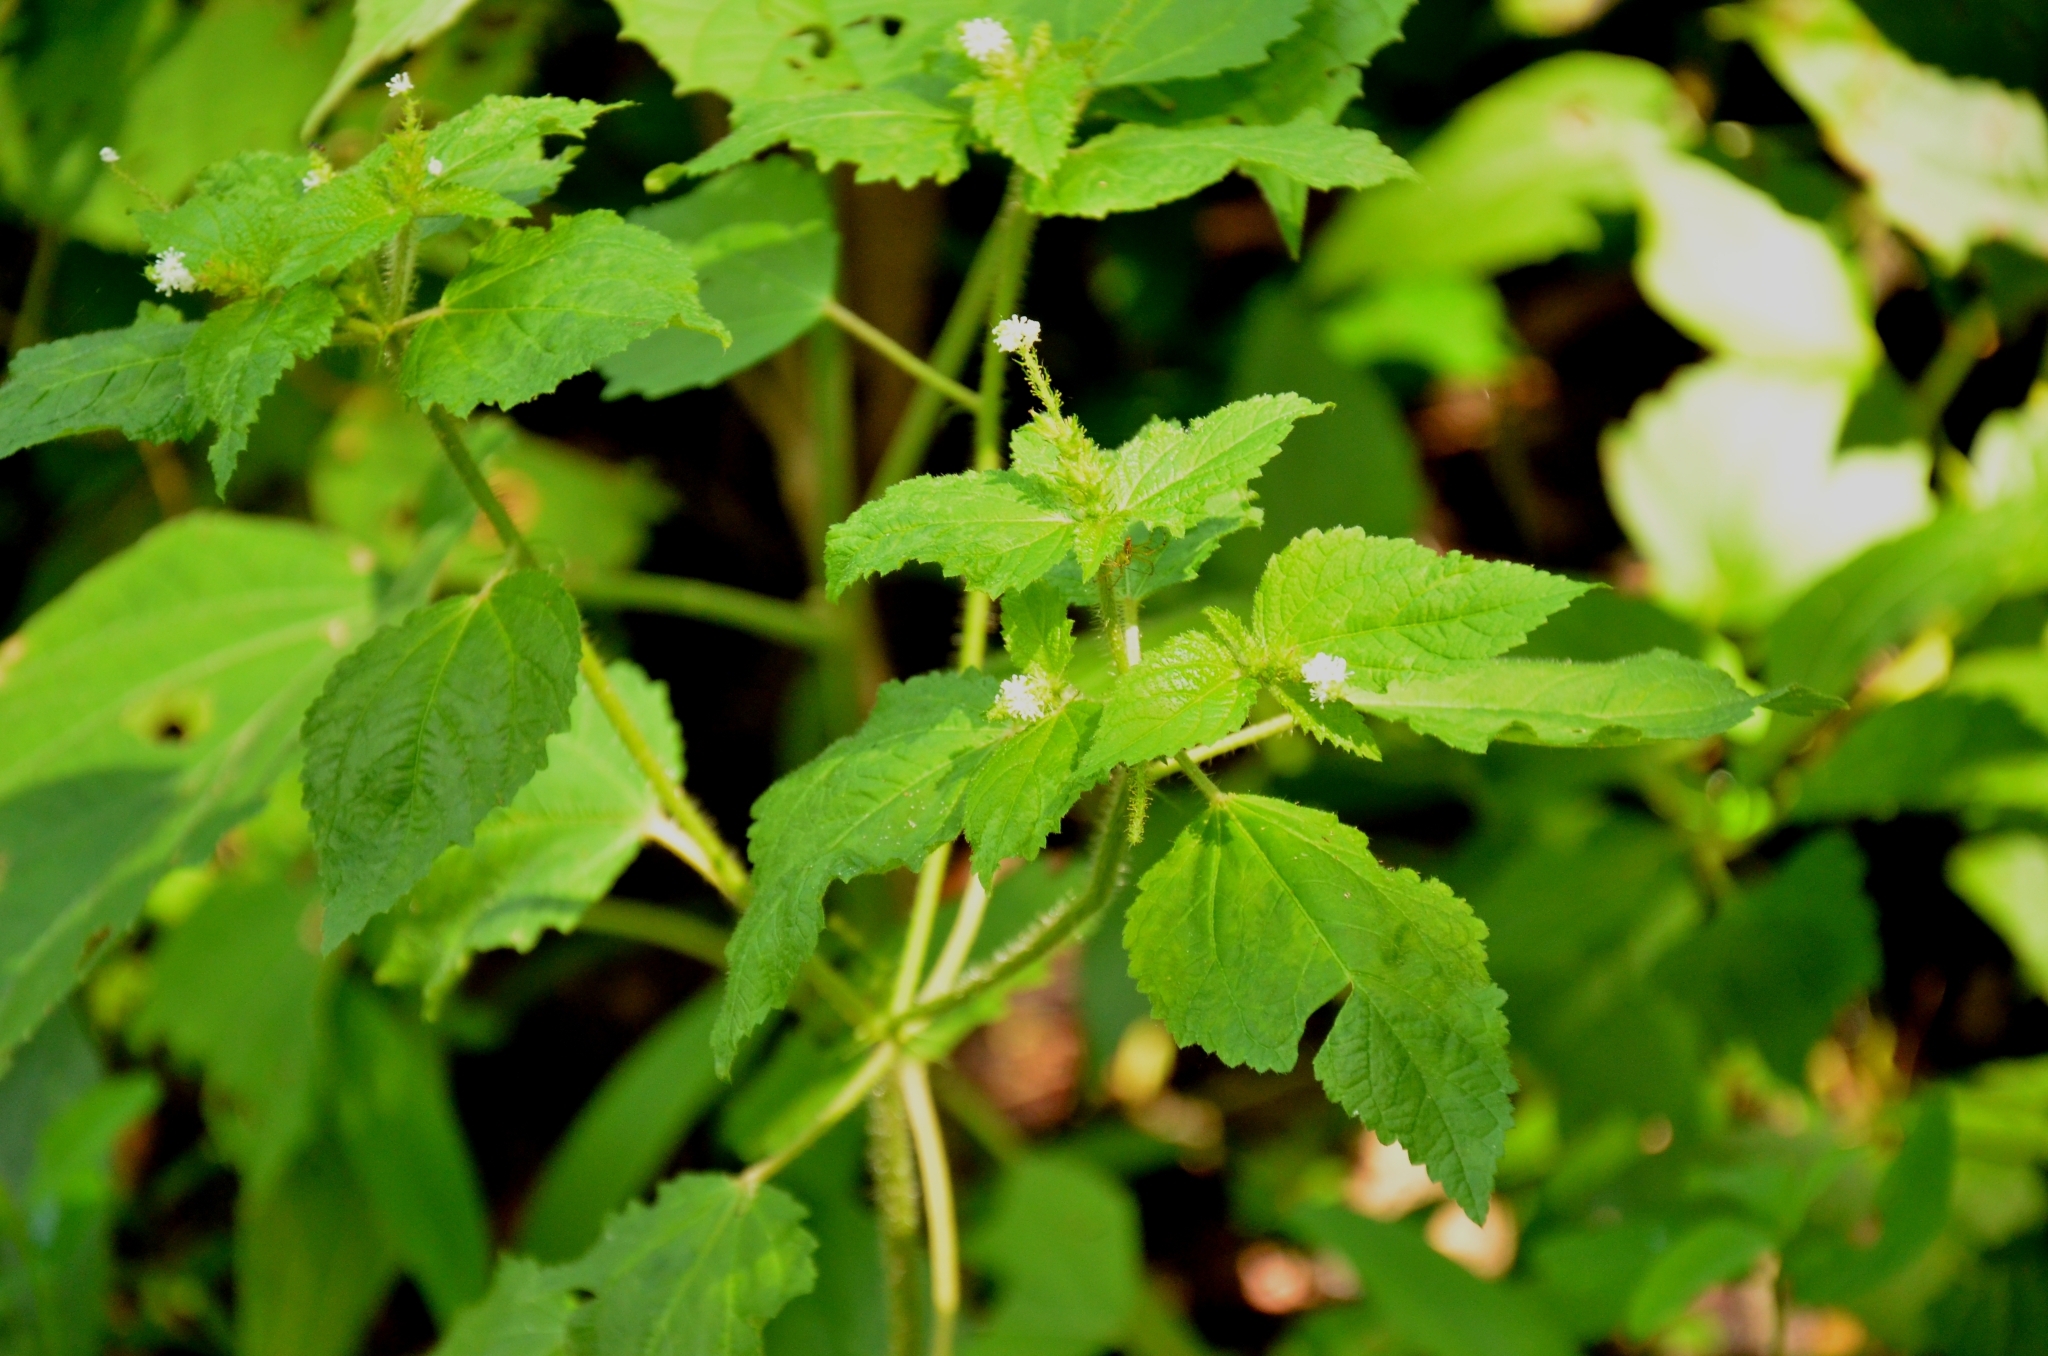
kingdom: Plantae
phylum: Tracheophyta
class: Magnoliopsida
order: Malpighiales
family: Euphorbiaceae
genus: Croton
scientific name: Croton hirtus
